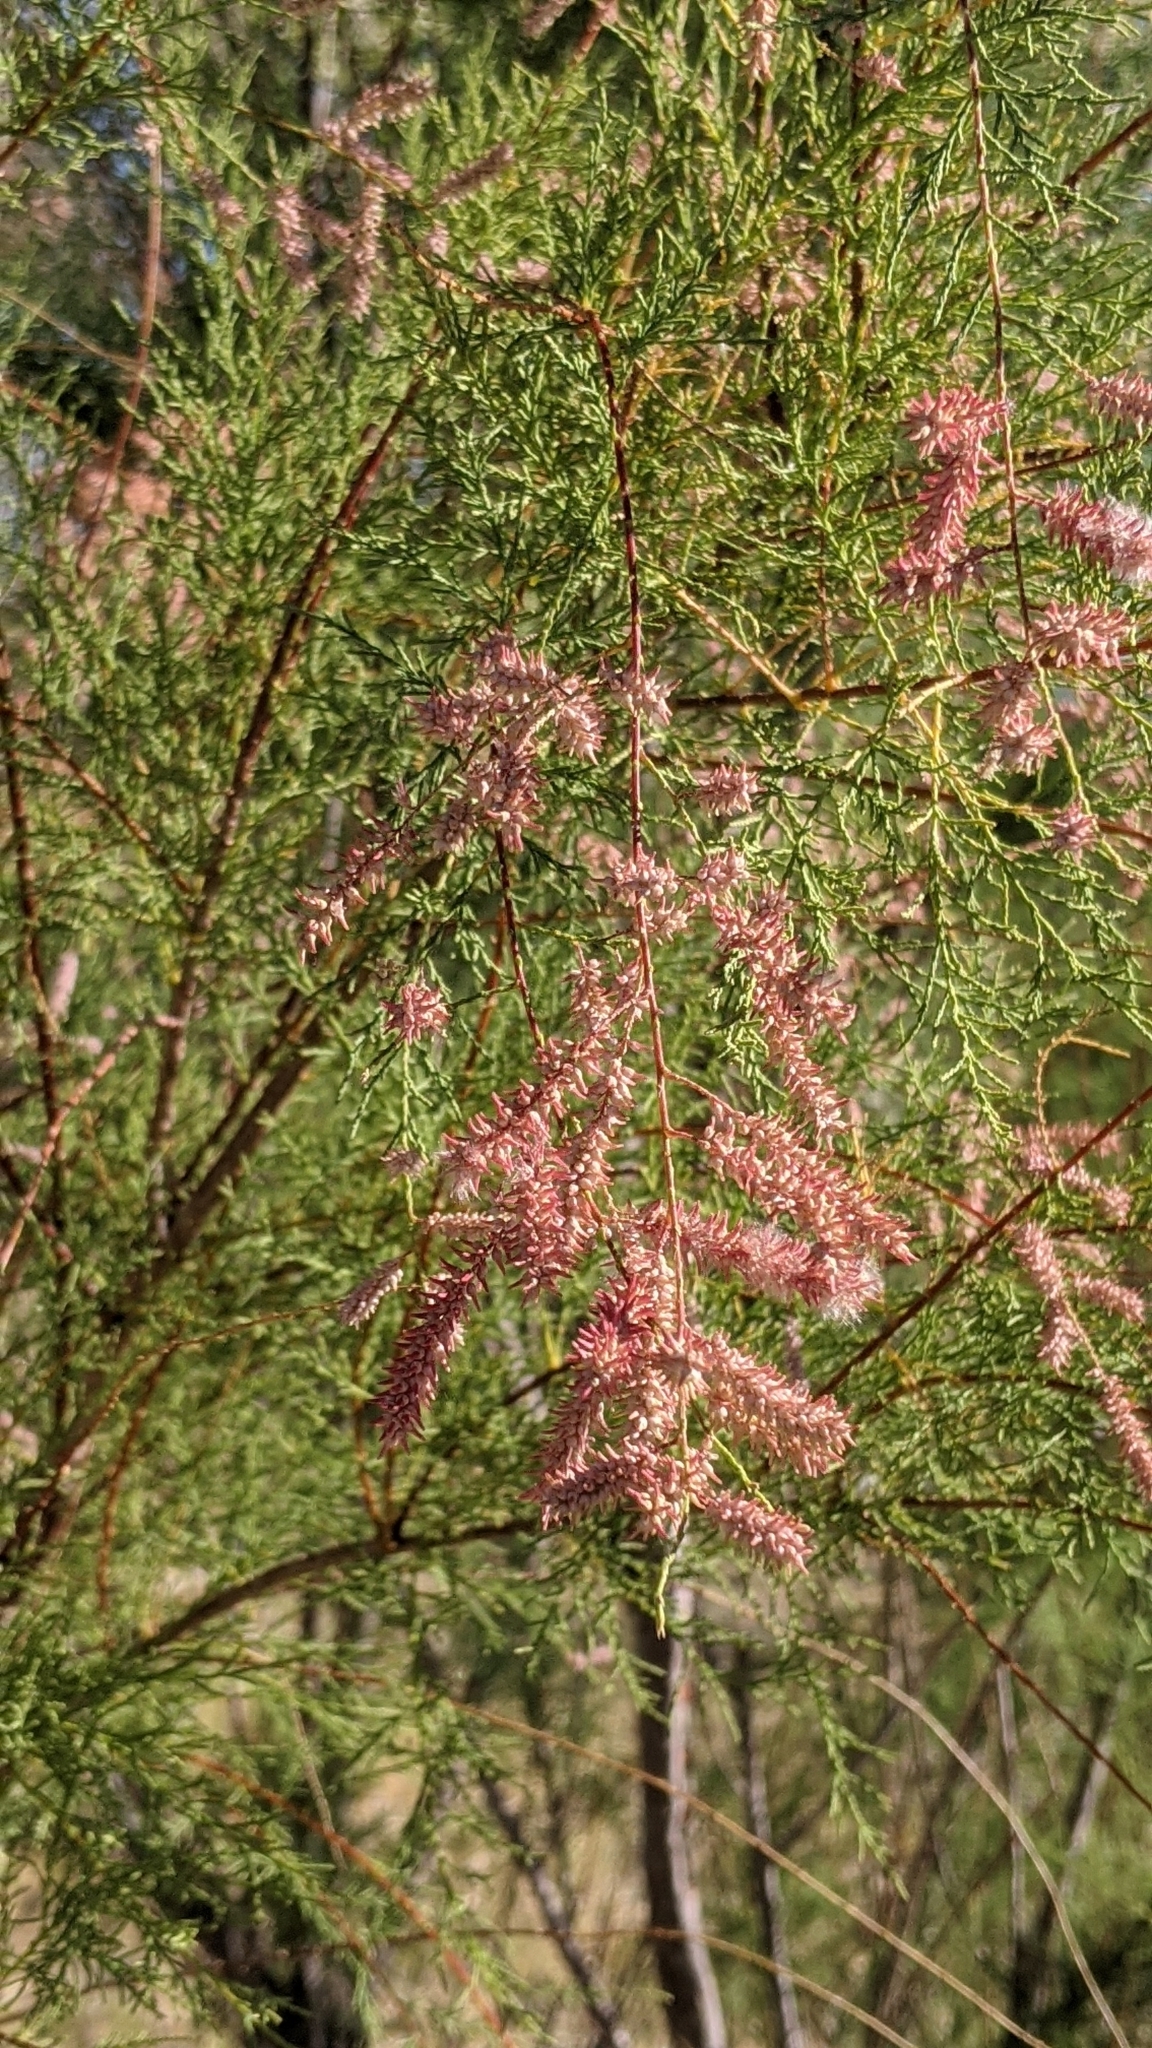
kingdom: Plantae
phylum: Tracheophyta
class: Magnoliopsida
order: Caryophyllales
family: Tamaricaceae
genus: Tamarix
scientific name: Tamarix
